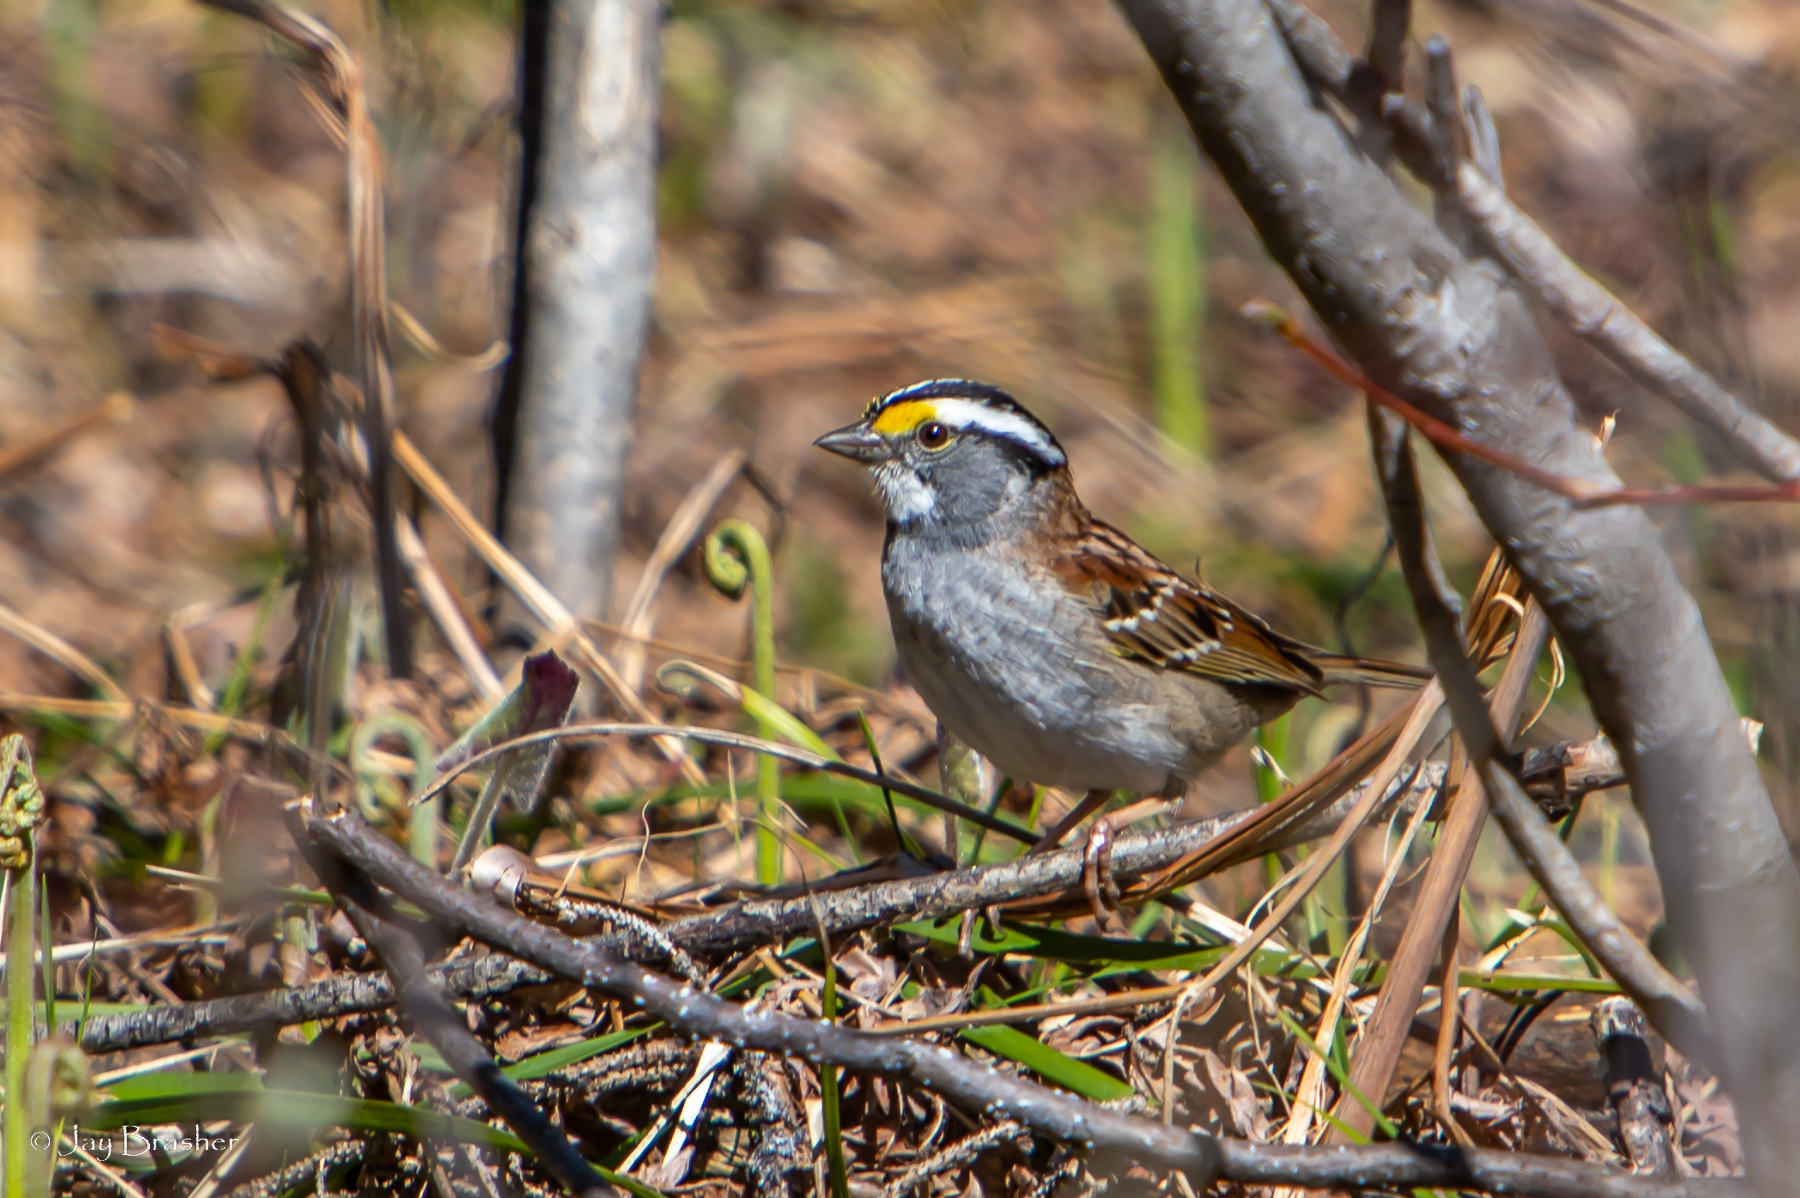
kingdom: Animalia
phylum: Chordata
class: Aves
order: Passeriformes
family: Passerellidae
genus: Zonotrichia
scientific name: Zonotrichia albicollis
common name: White-throated sparrow
